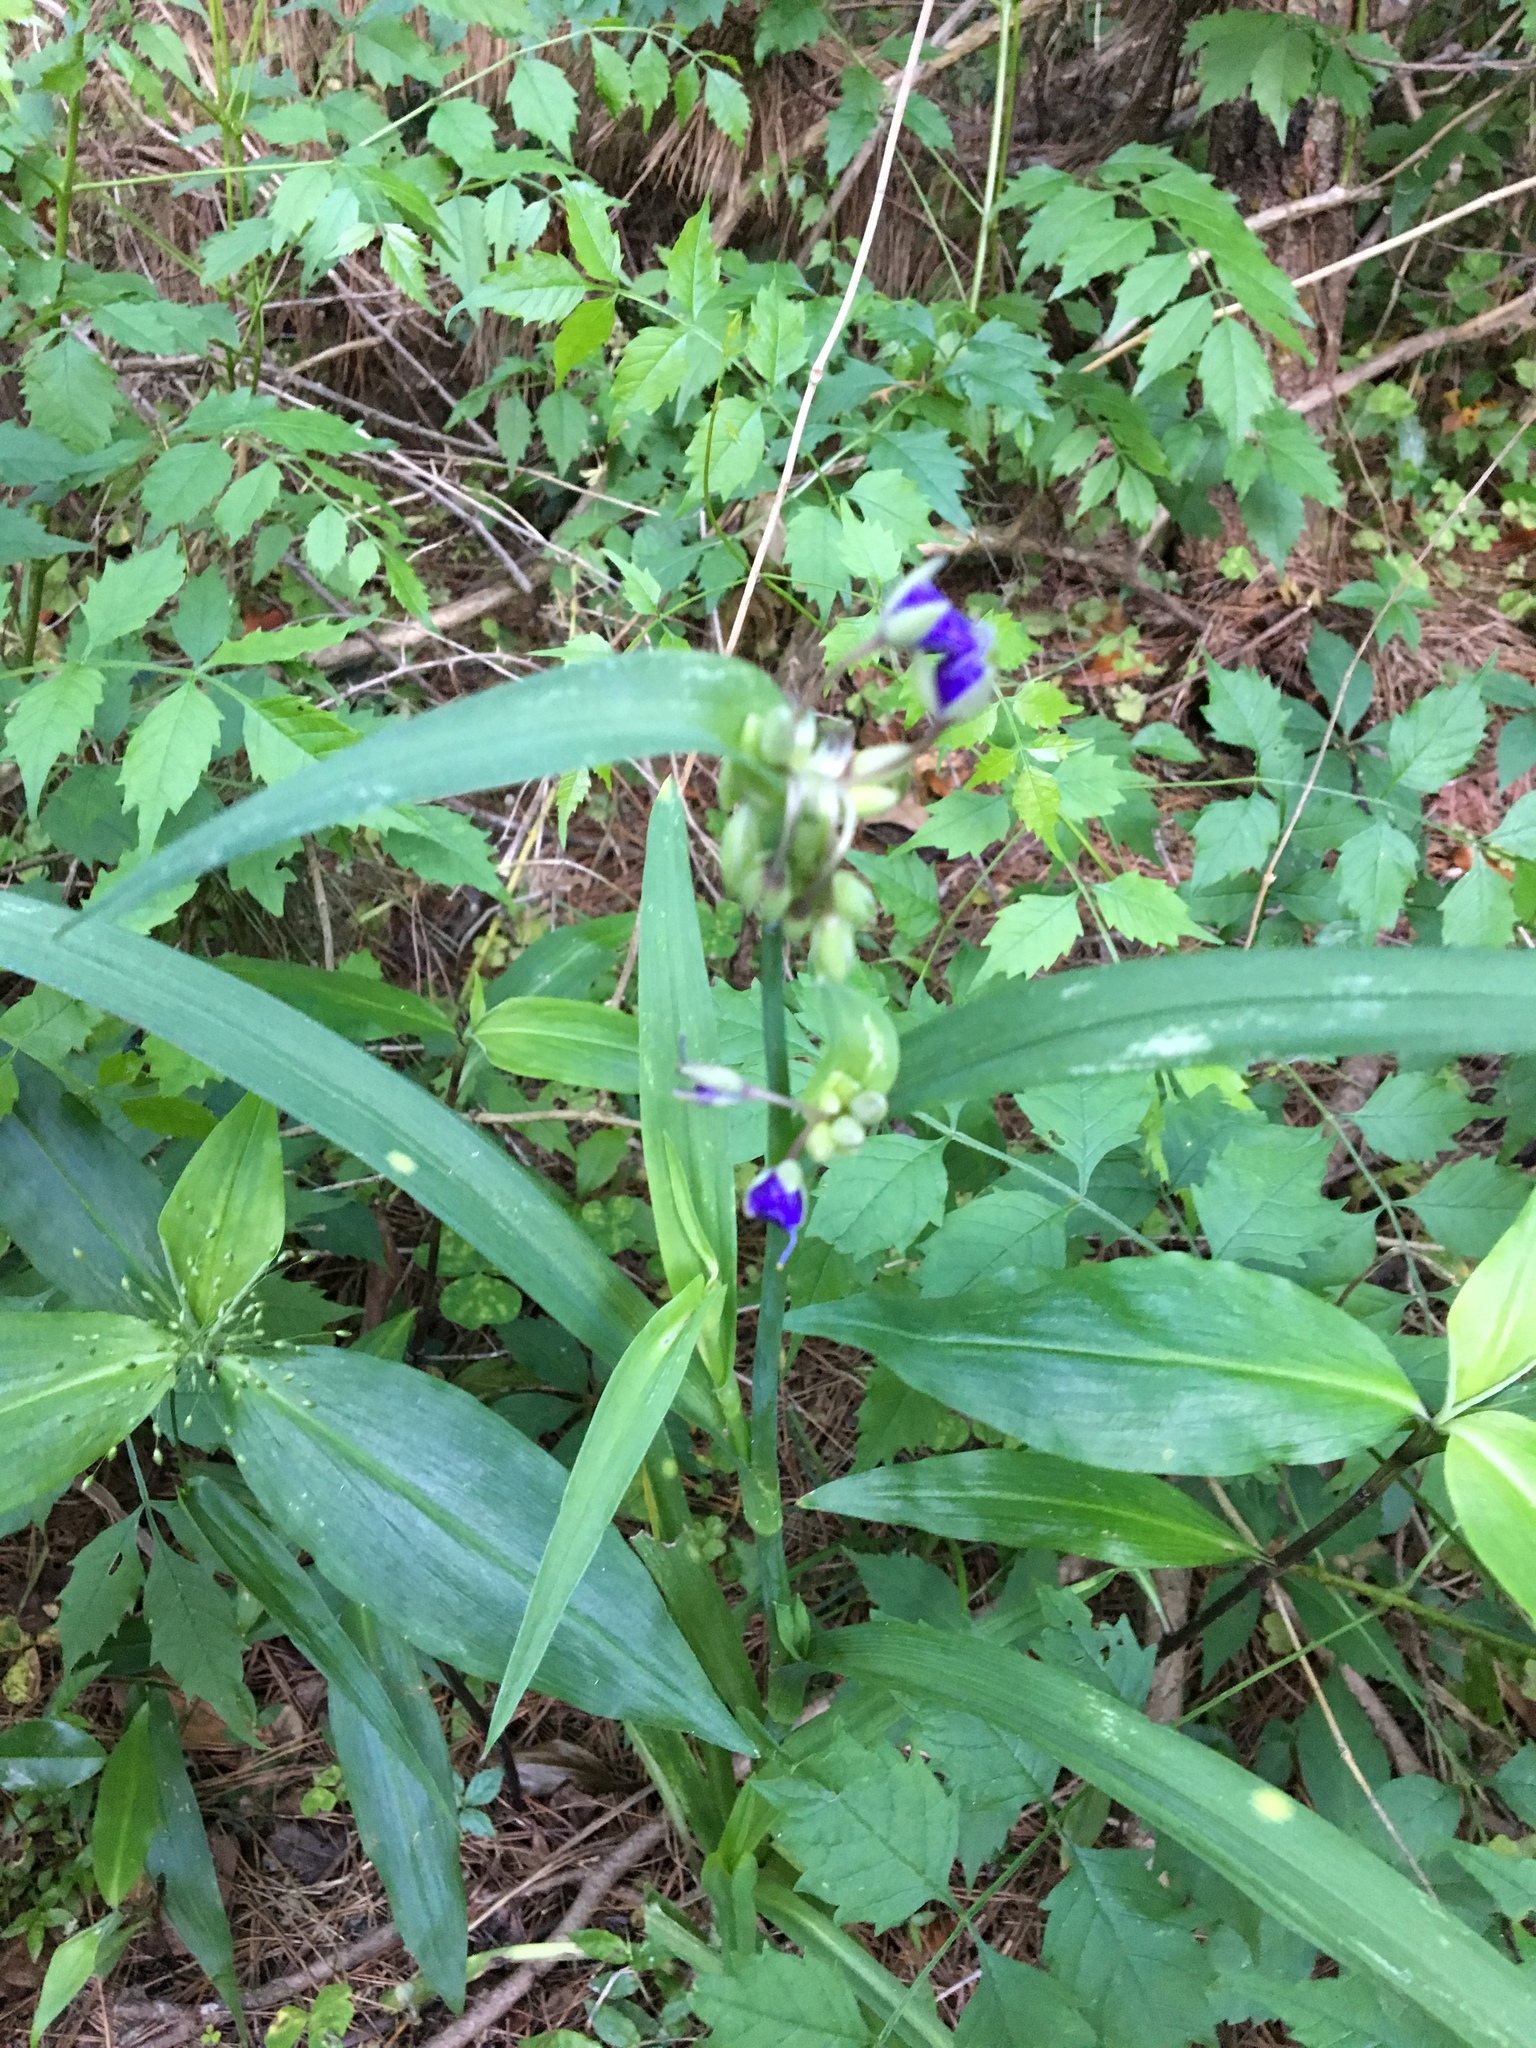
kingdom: Plantae
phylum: Tracheophyta
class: Liliopsida
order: Commelinales
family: Commelinaceae
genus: Tradescantia
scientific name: Tradescantia ohiensis
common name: Ohio spiderwort
